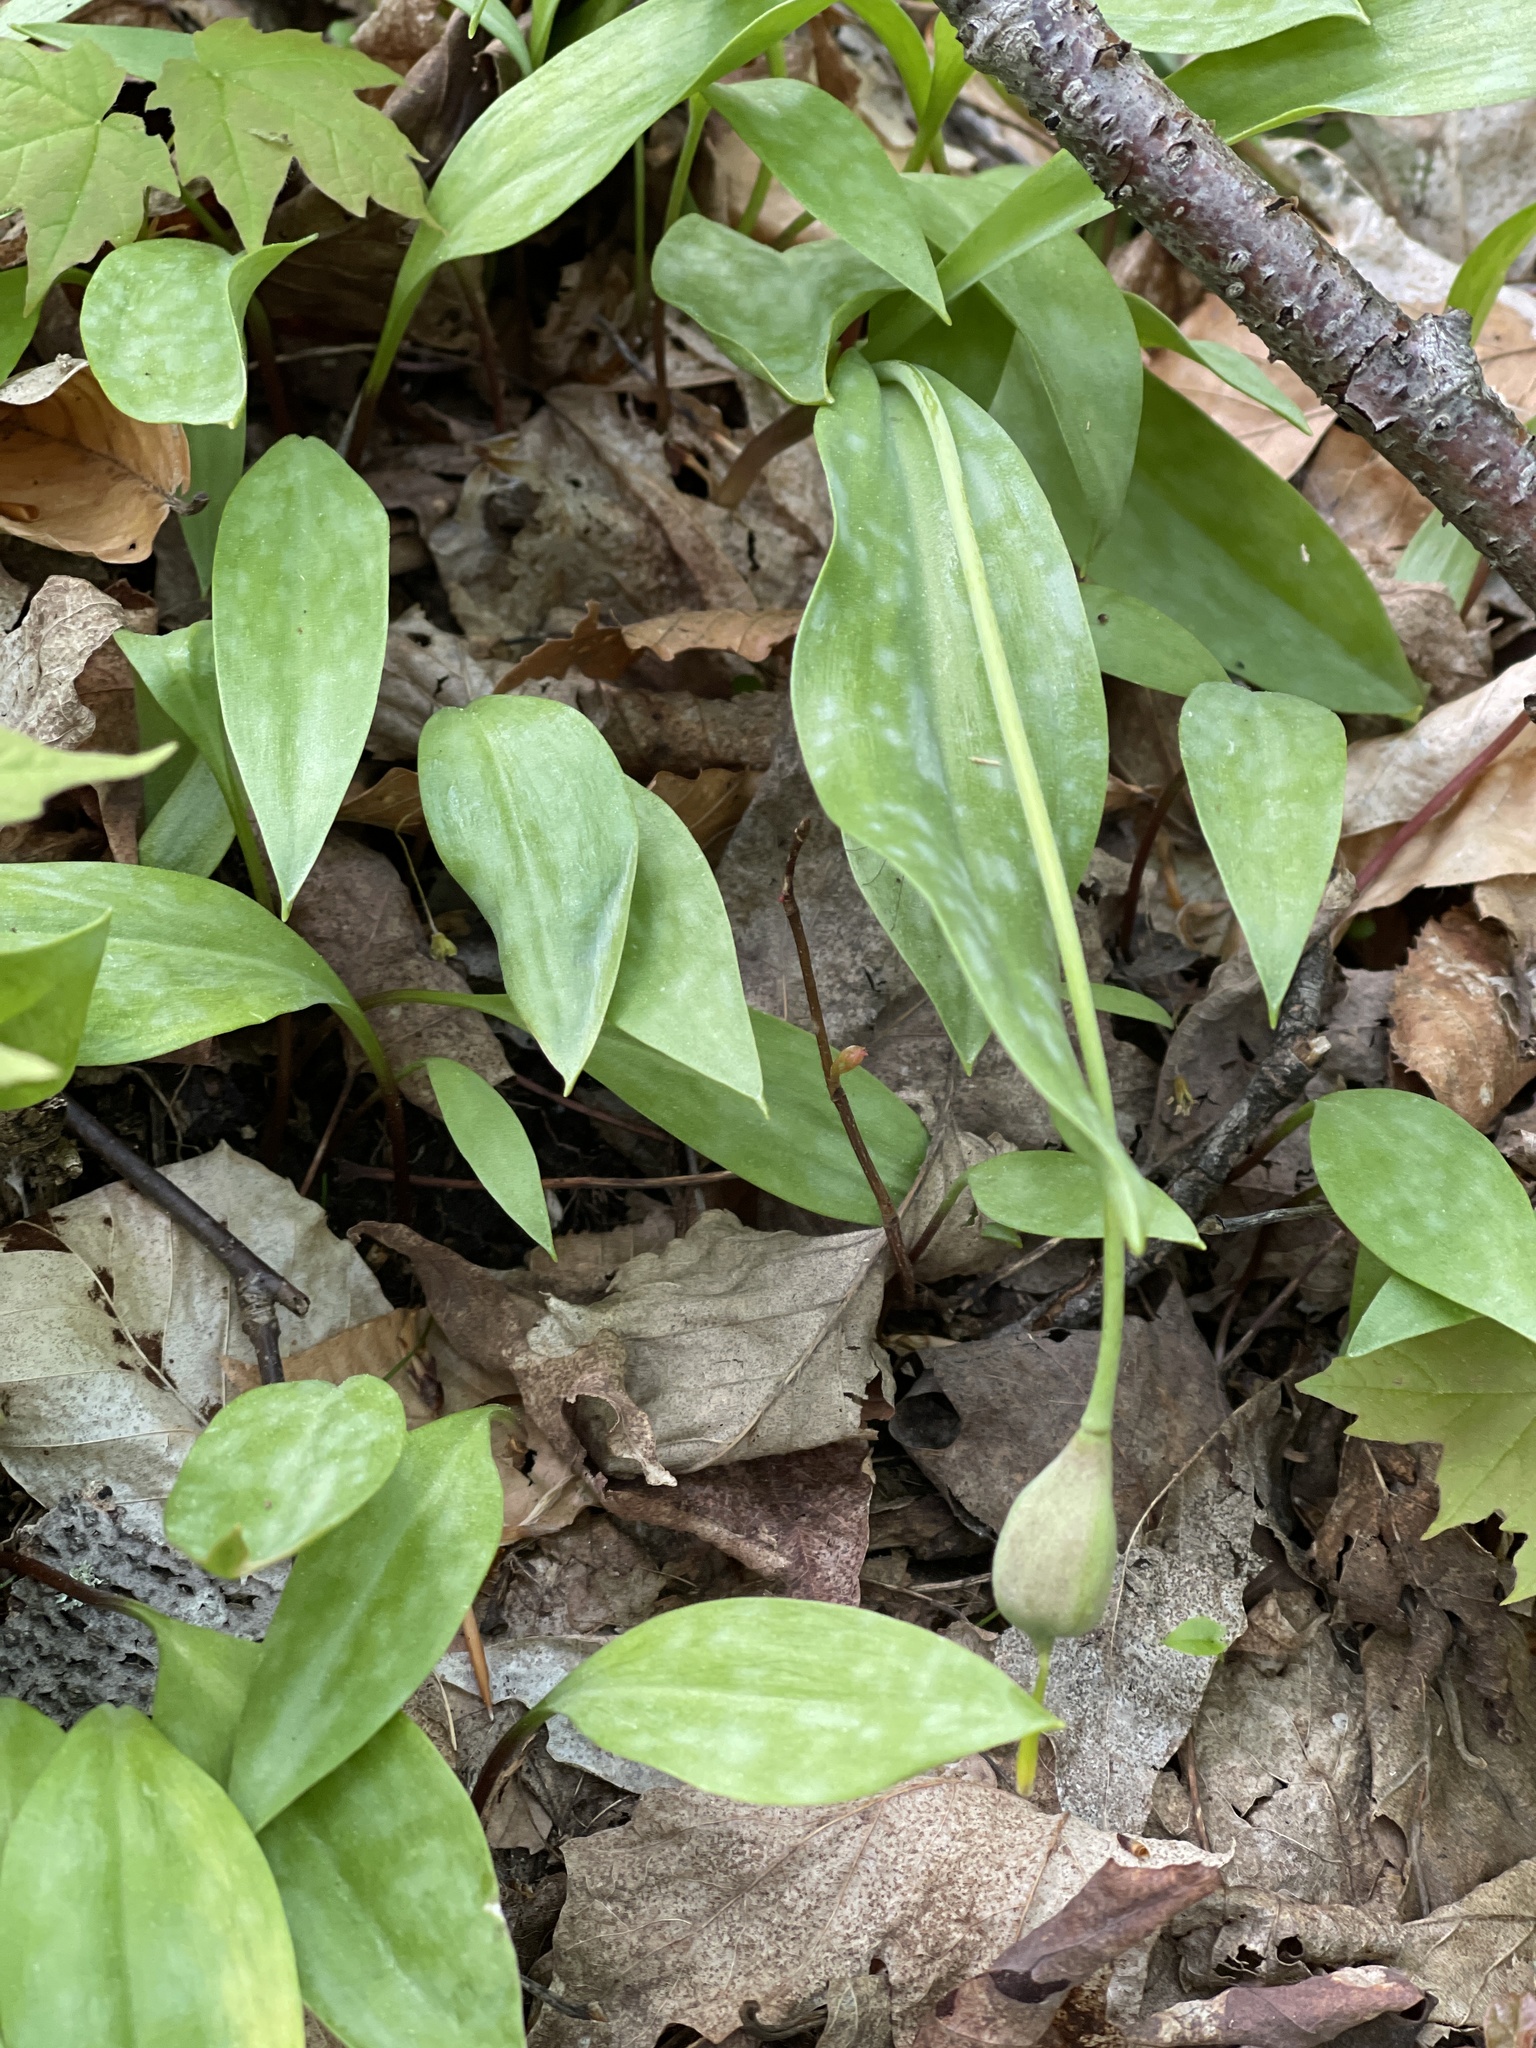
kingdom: Plantae
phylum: Tracheophyta
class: Liliopsida
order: Liliales
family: Liliaceae
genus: Erythronium
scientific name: Erythronium americanum
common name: Yellow adder's-tongue
